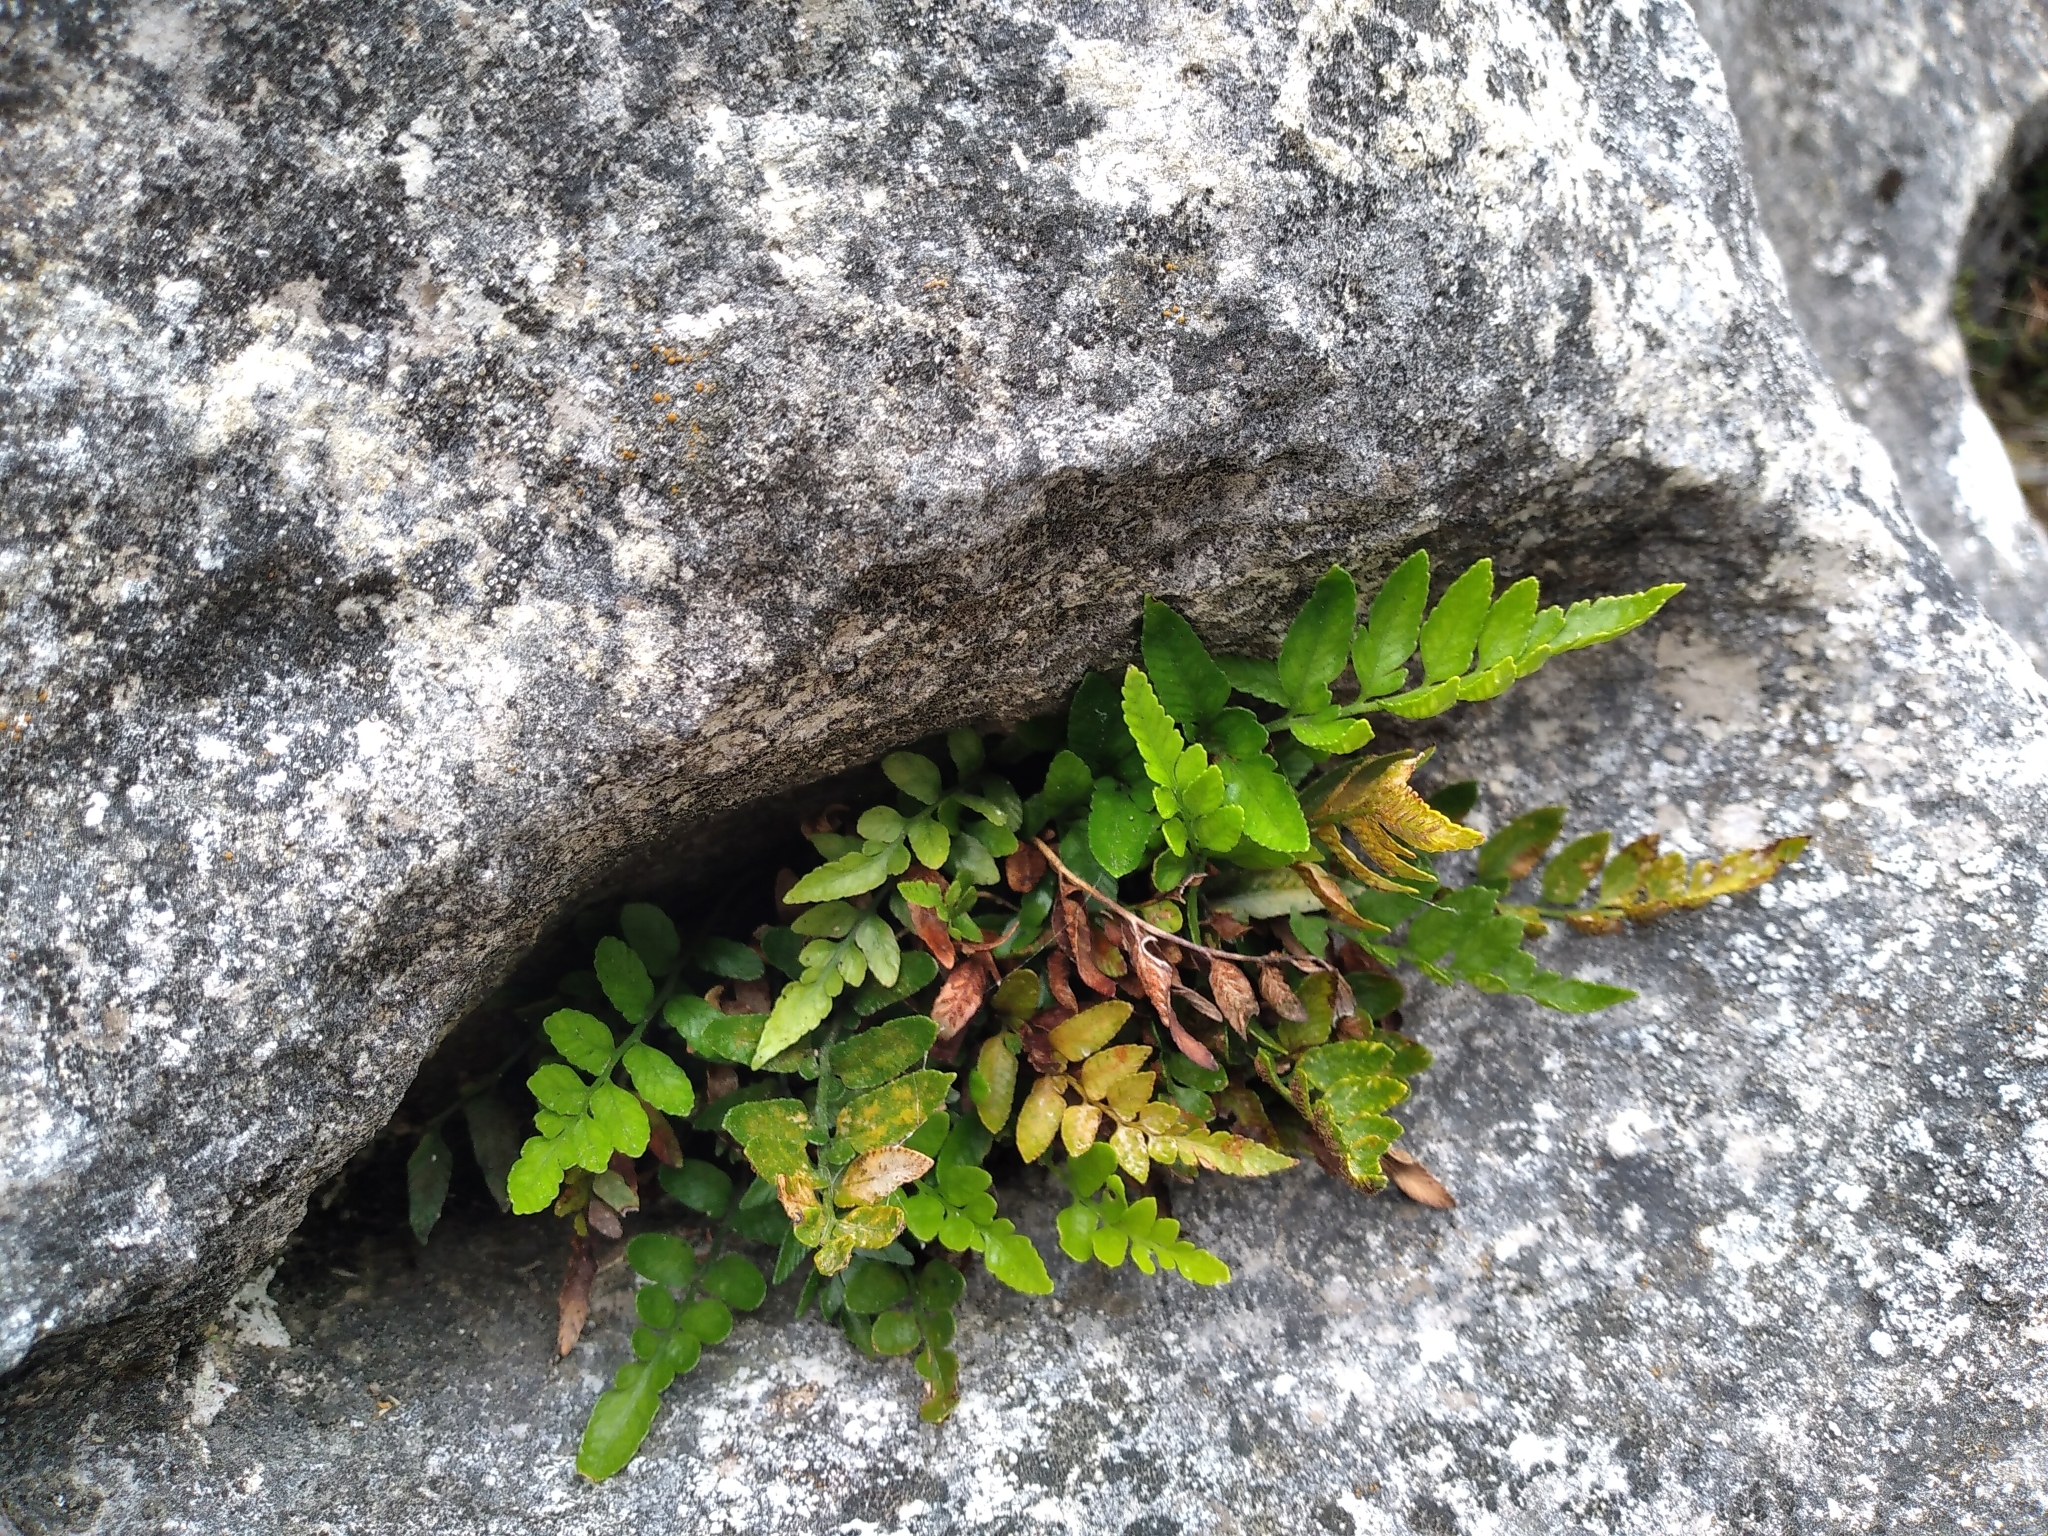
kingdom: Plantae
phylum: Tracheophyta
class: Polypodiopsida
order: Polypodiales
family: Aspleniaceae
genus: Asplenium
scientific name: Asplenium lyallii
